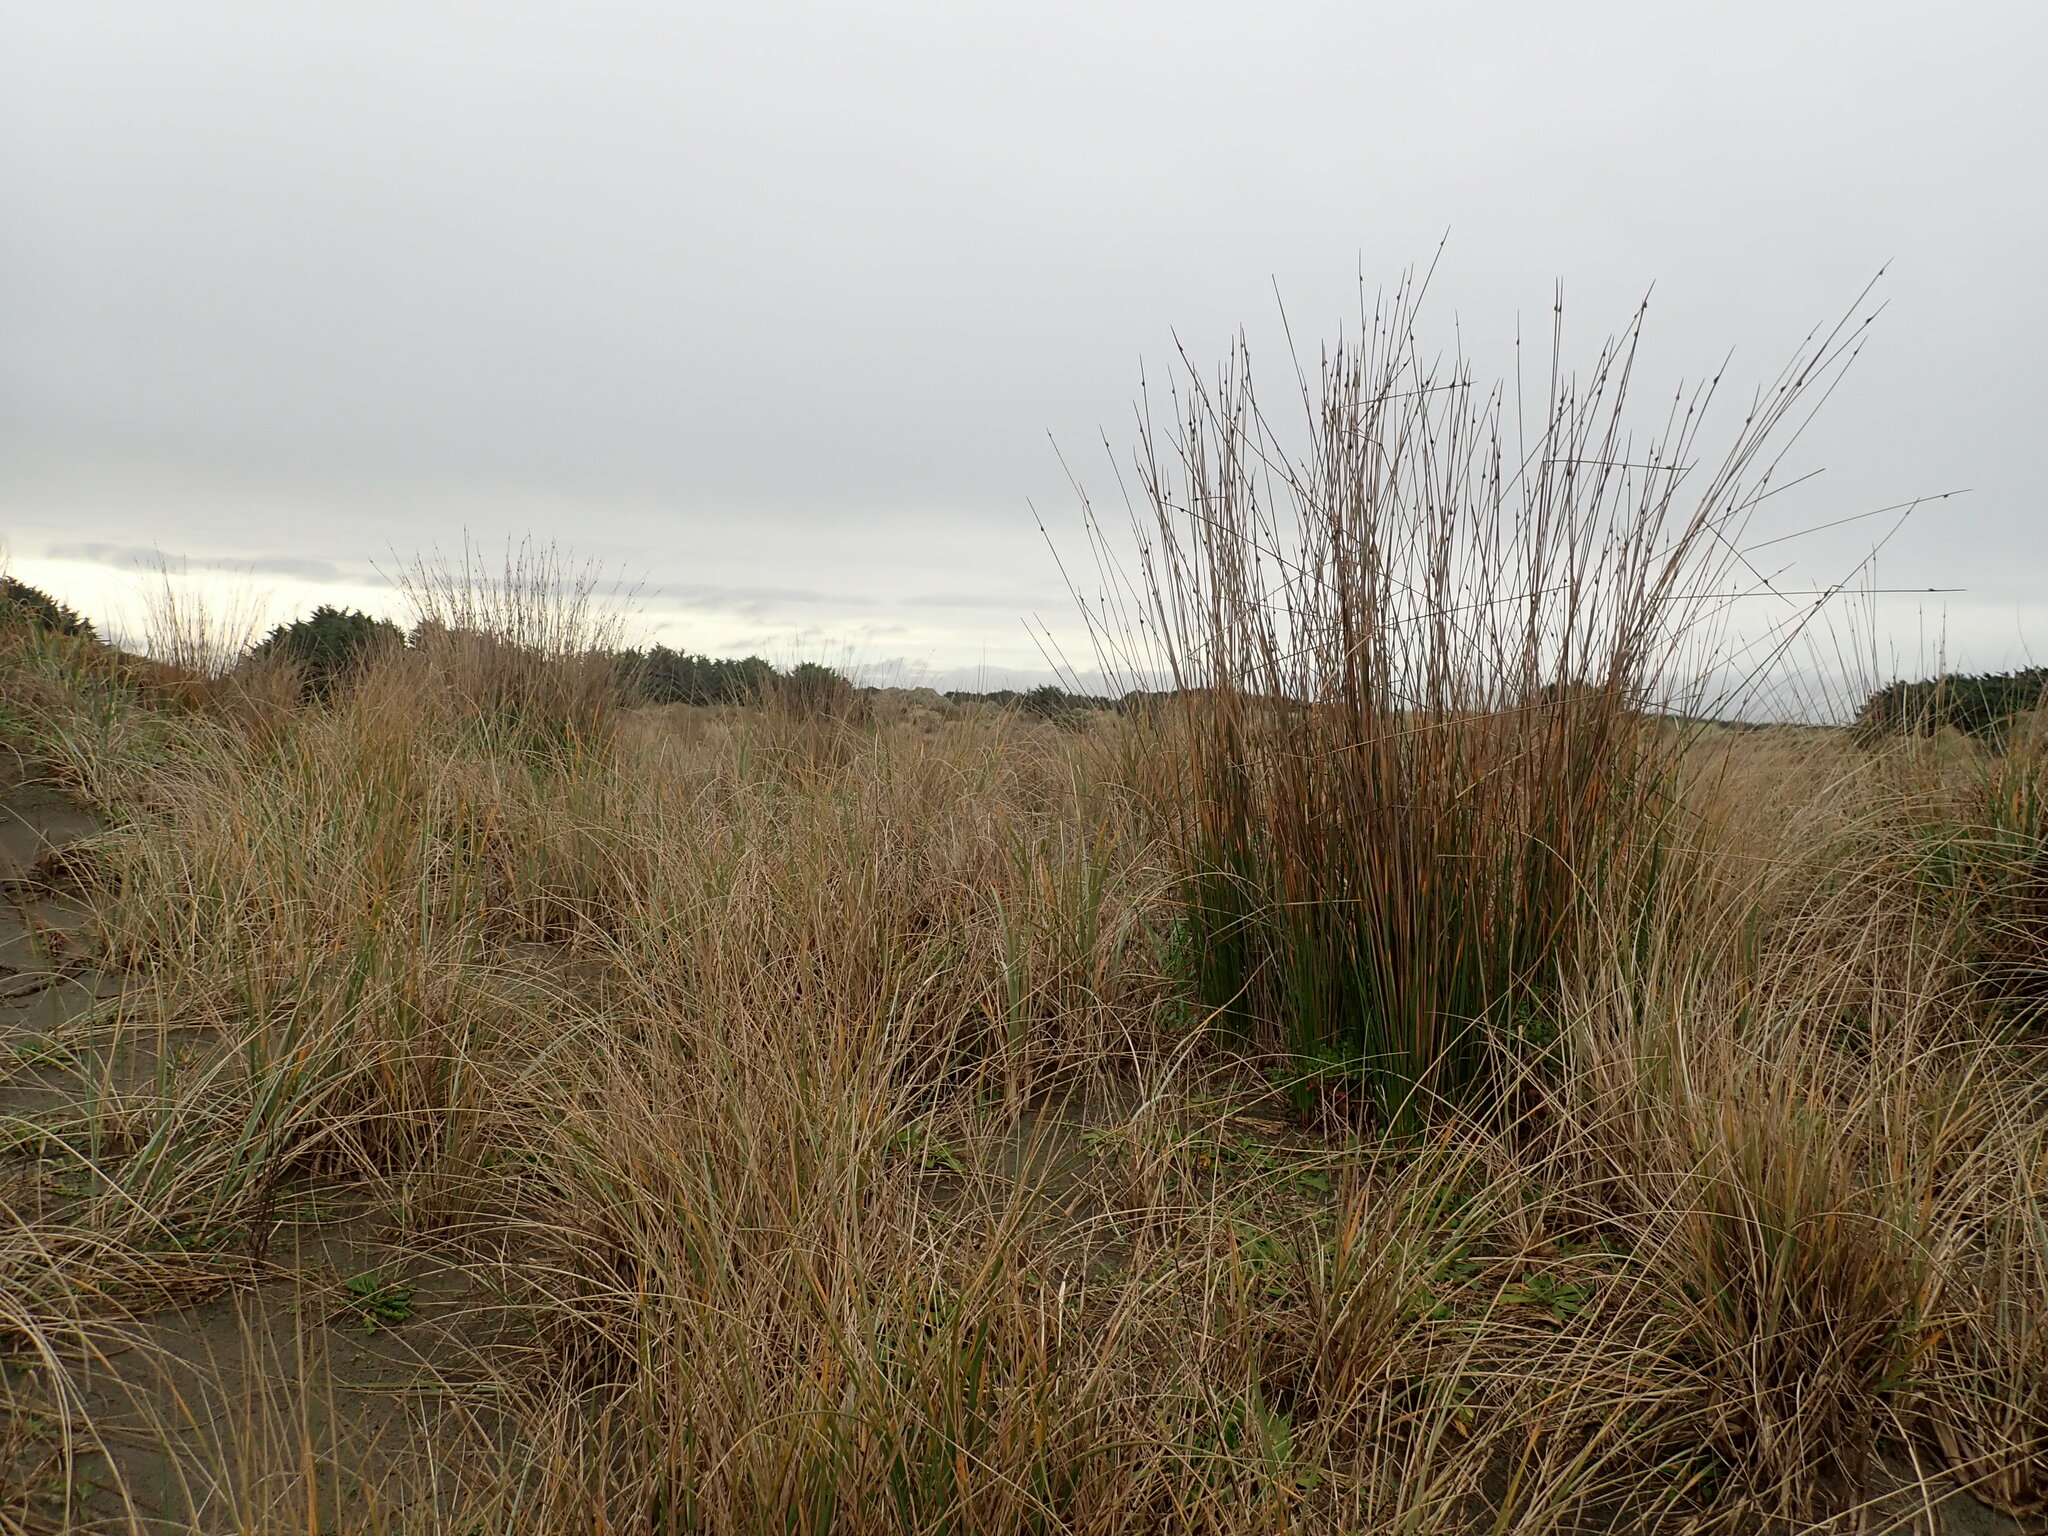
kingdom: Plantae
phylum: Tracheophyta
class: Liliopsida
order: Poales
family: Cyperaceae
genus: Ficinia
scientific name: Ficinia nodosa
